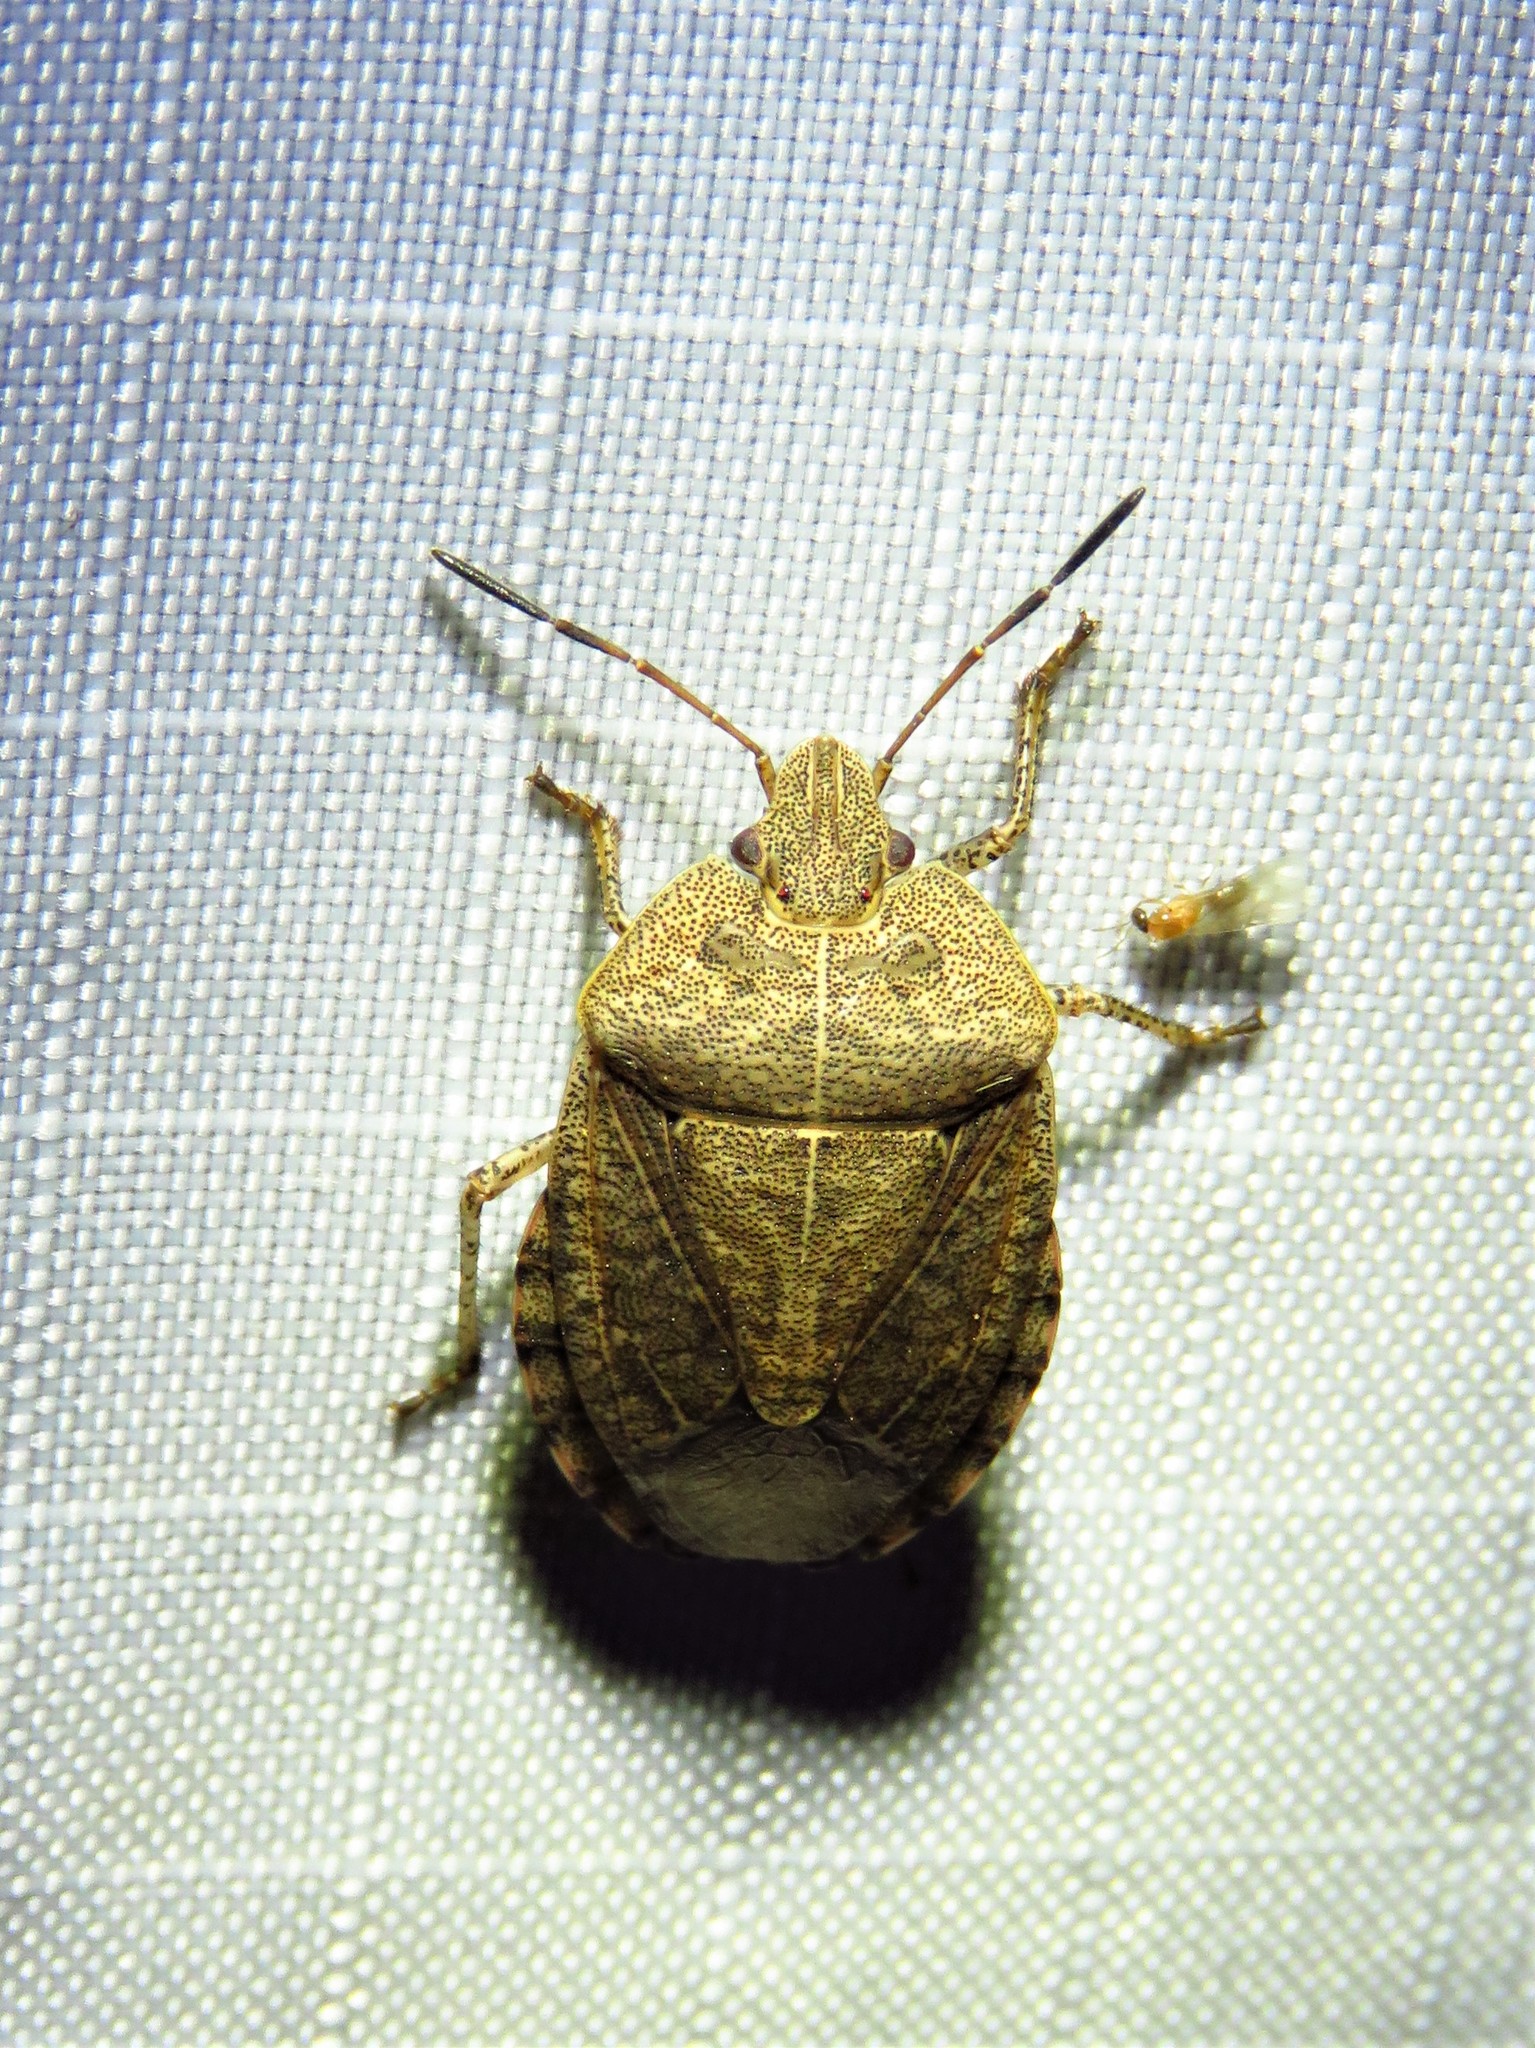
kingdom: Animalia
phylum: Arthropoda
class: Insecta
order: Hemiptera
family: Pentatomidae
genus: Menecles
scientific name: Menecles insertus
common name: Elf shoe stink bug
